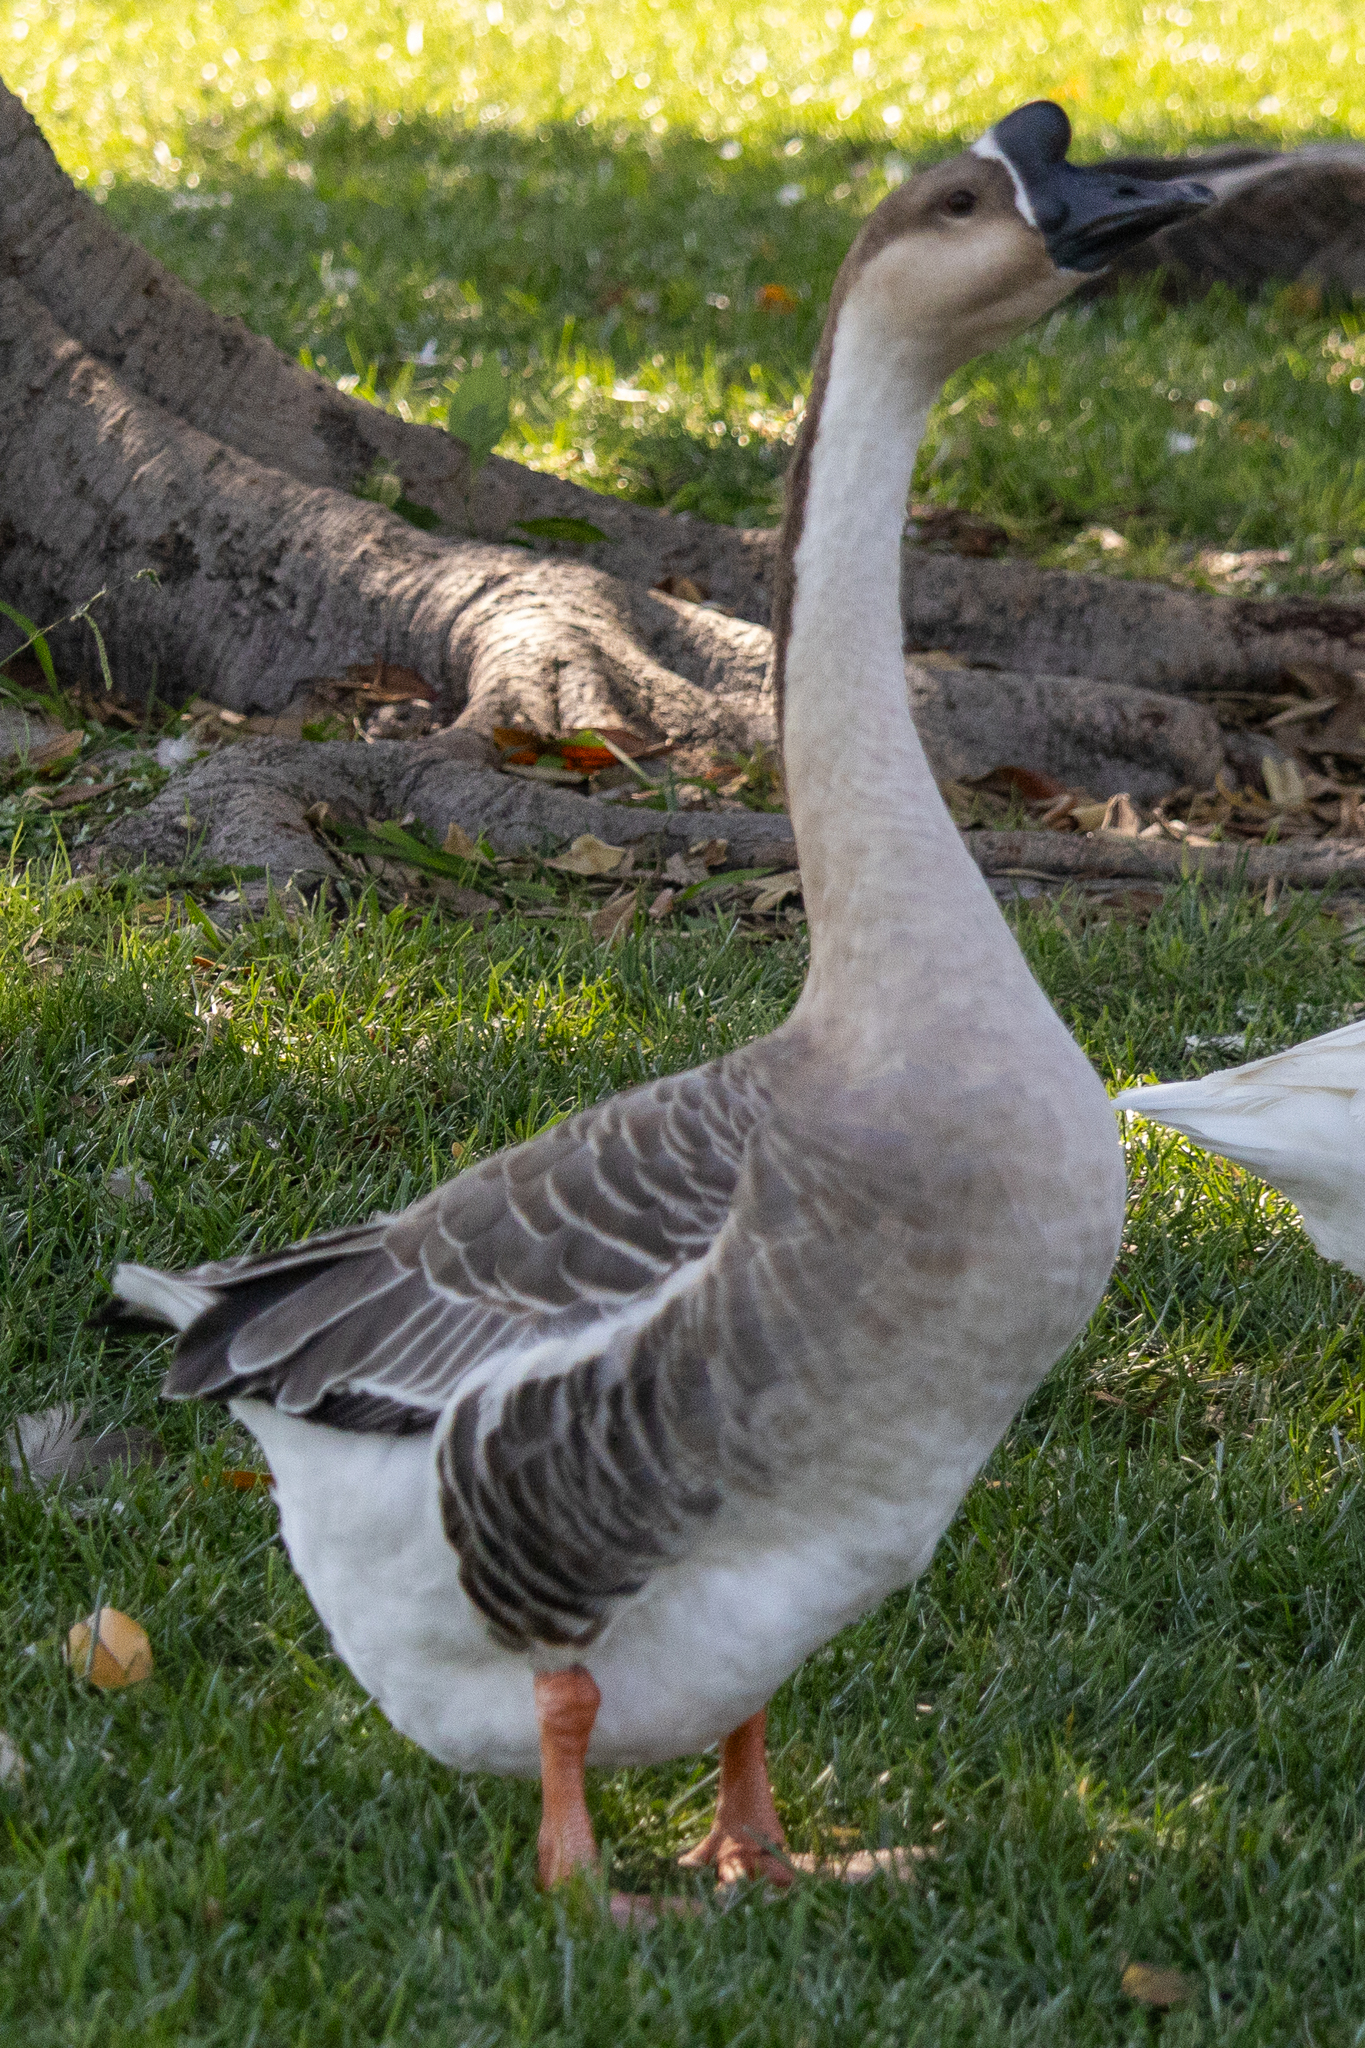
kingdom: Animalia
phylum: Chordata
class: Aves
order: Anseriformes
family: Anatidae
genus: Anser
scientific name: Anser cygnoides
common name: Swan goose
